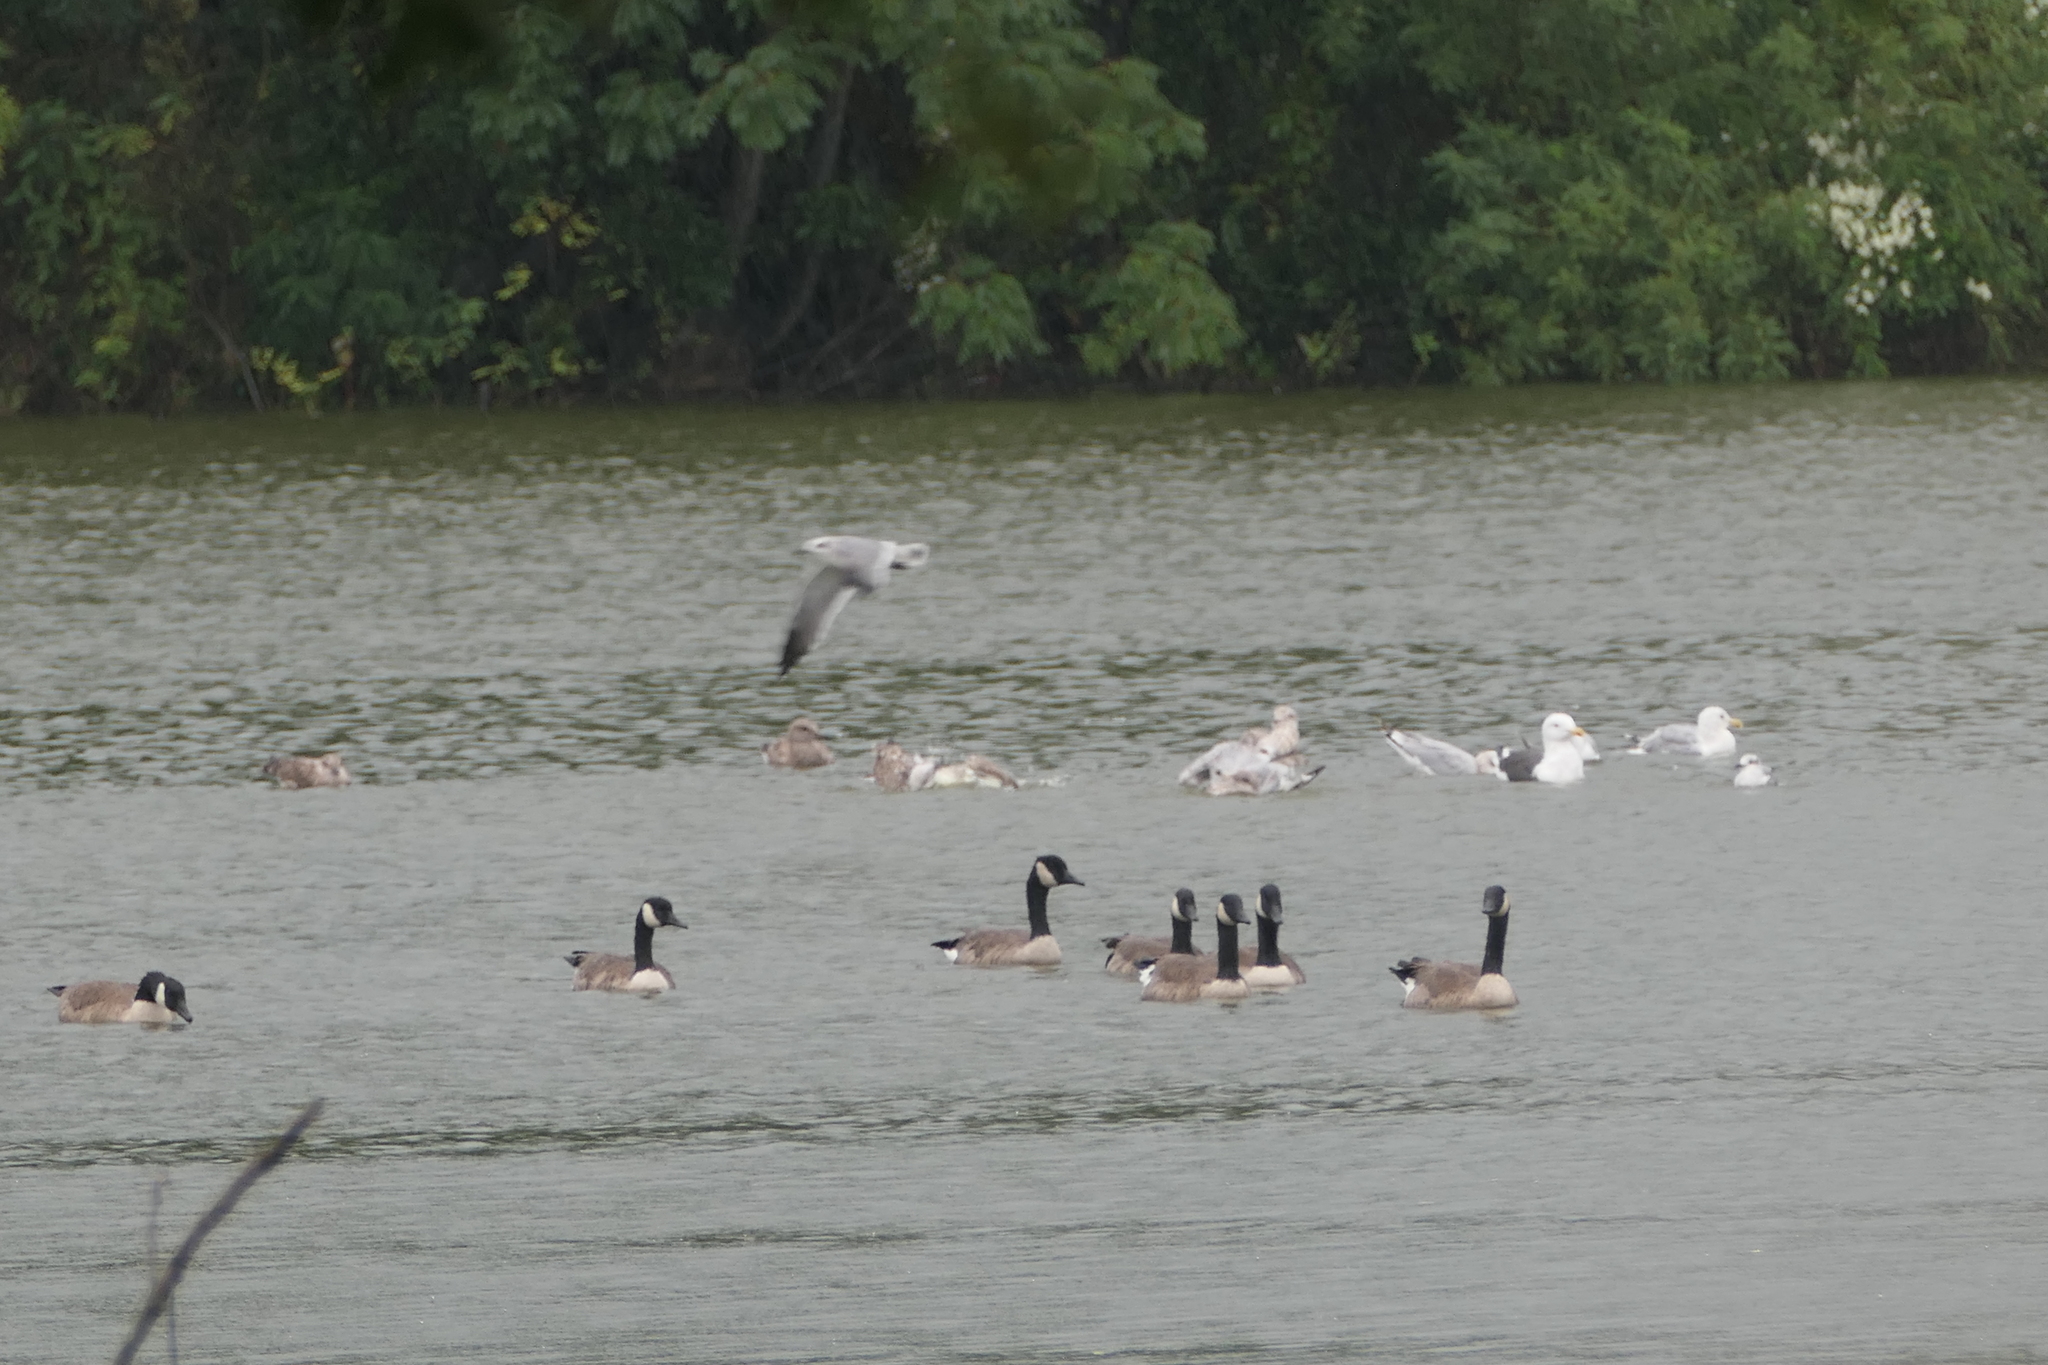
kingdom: Animalia
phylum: Chordata
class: Aves
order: Charadriiformes
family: Laridae
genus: Larus
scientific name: Larus marinus
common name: Great black-backed gull
